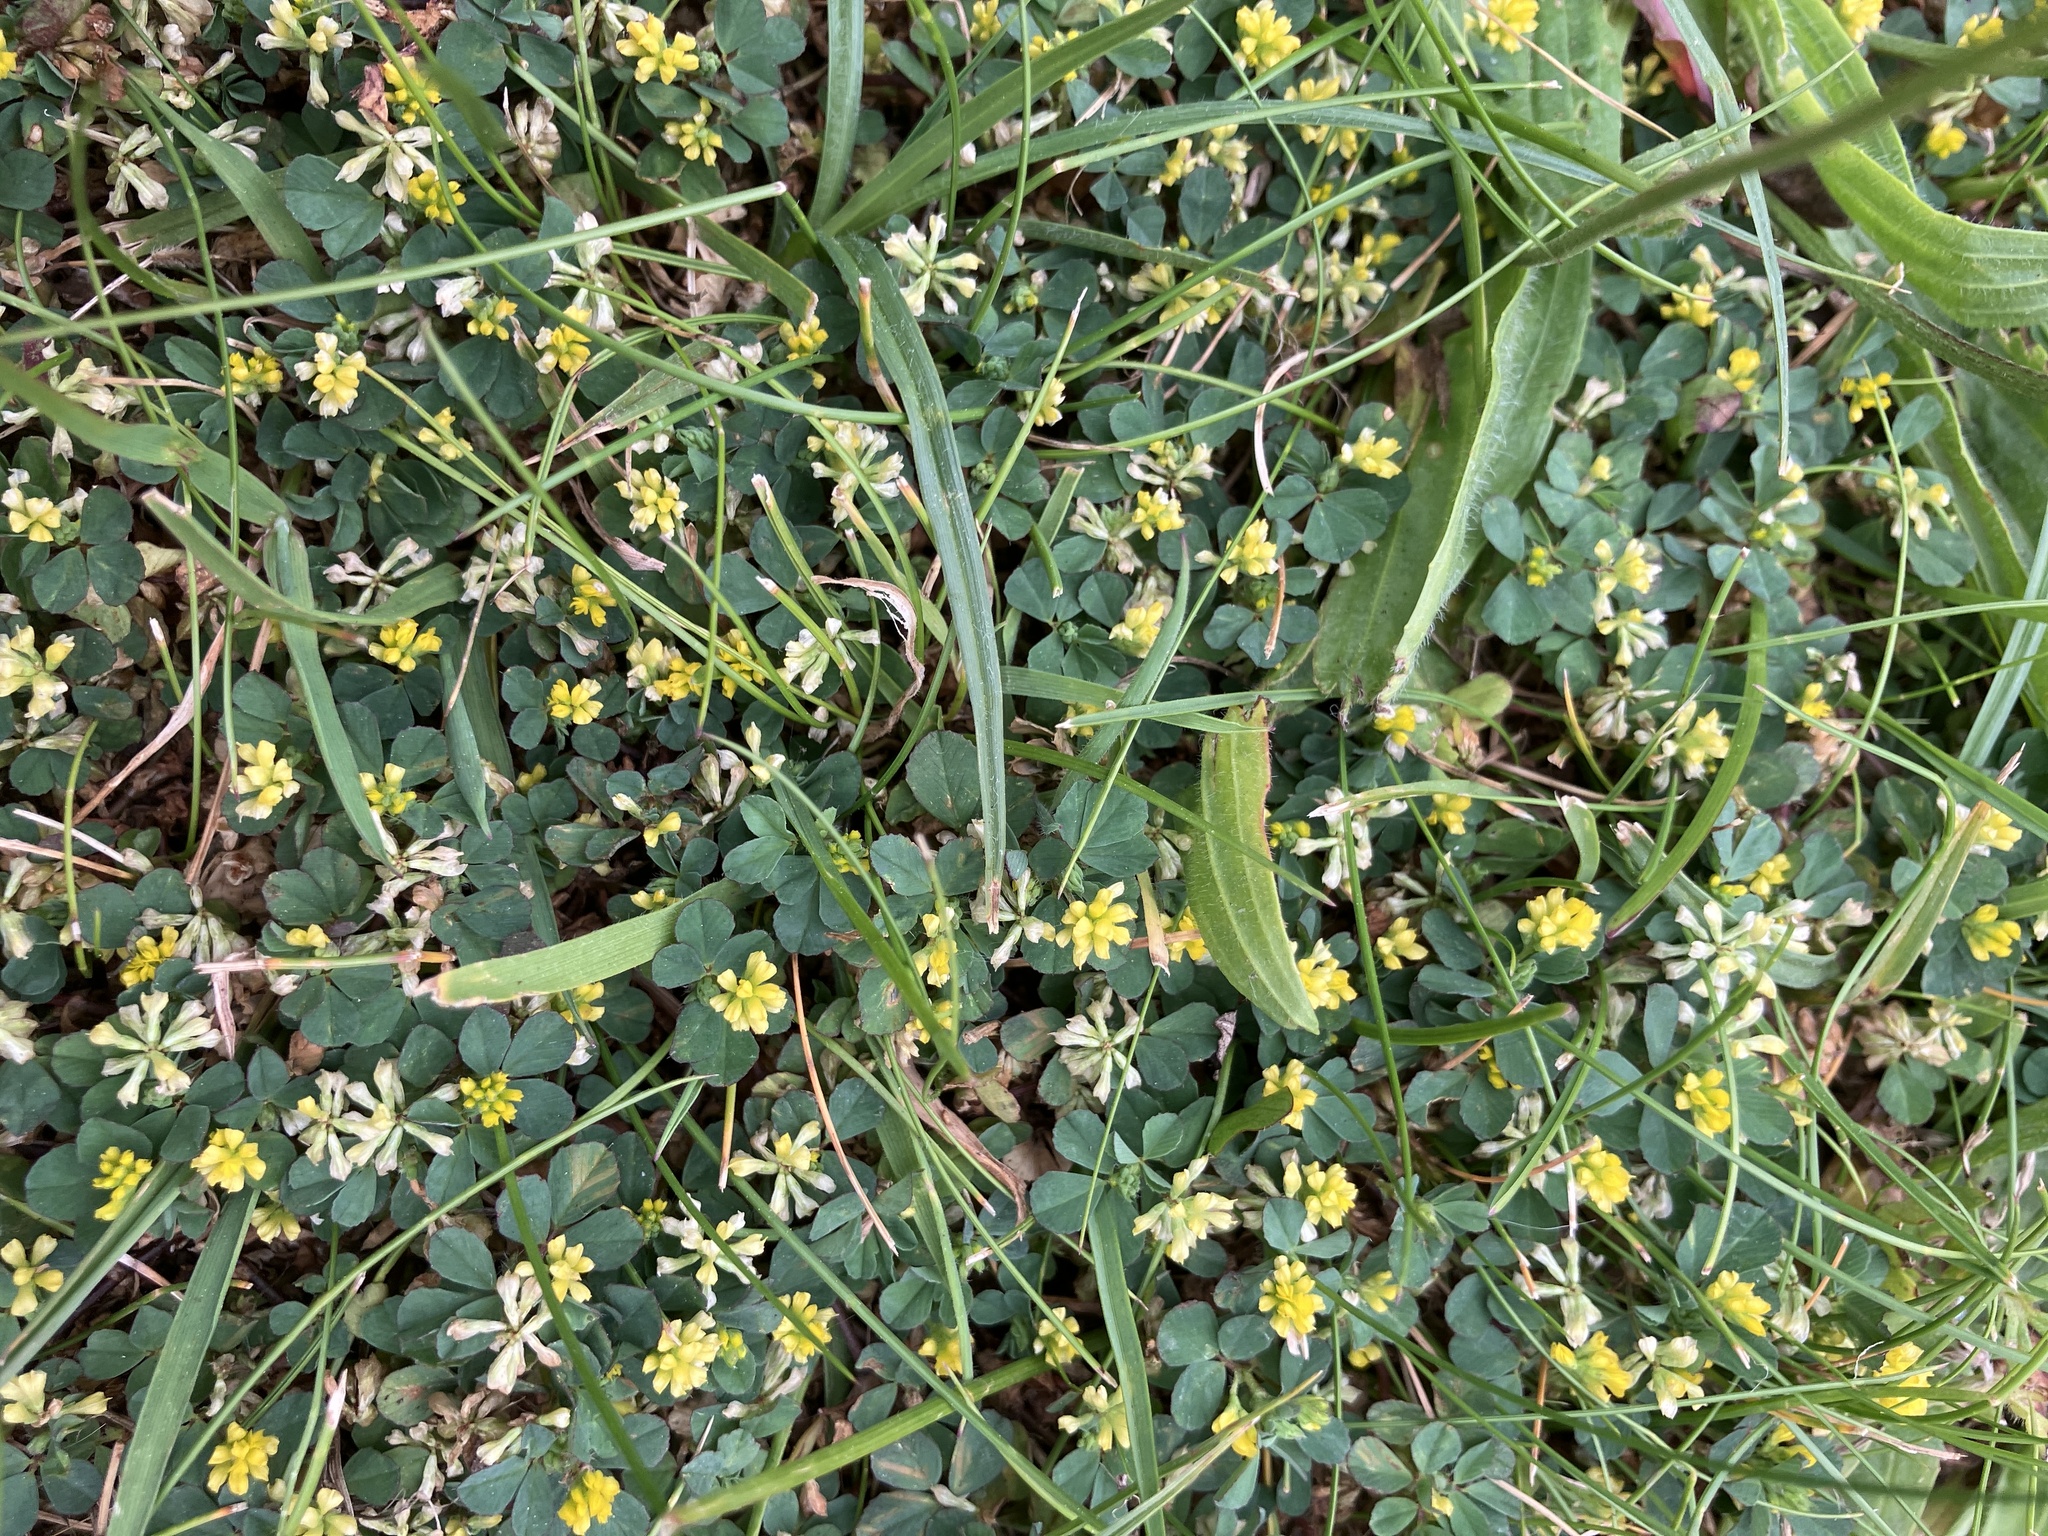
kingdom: Plantae
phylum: Tracheophyta
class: Magnoliopsida
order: Fabales
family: Fabaceae
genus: Trifolium
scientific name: Trifolium dubium
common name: Suckling clover
